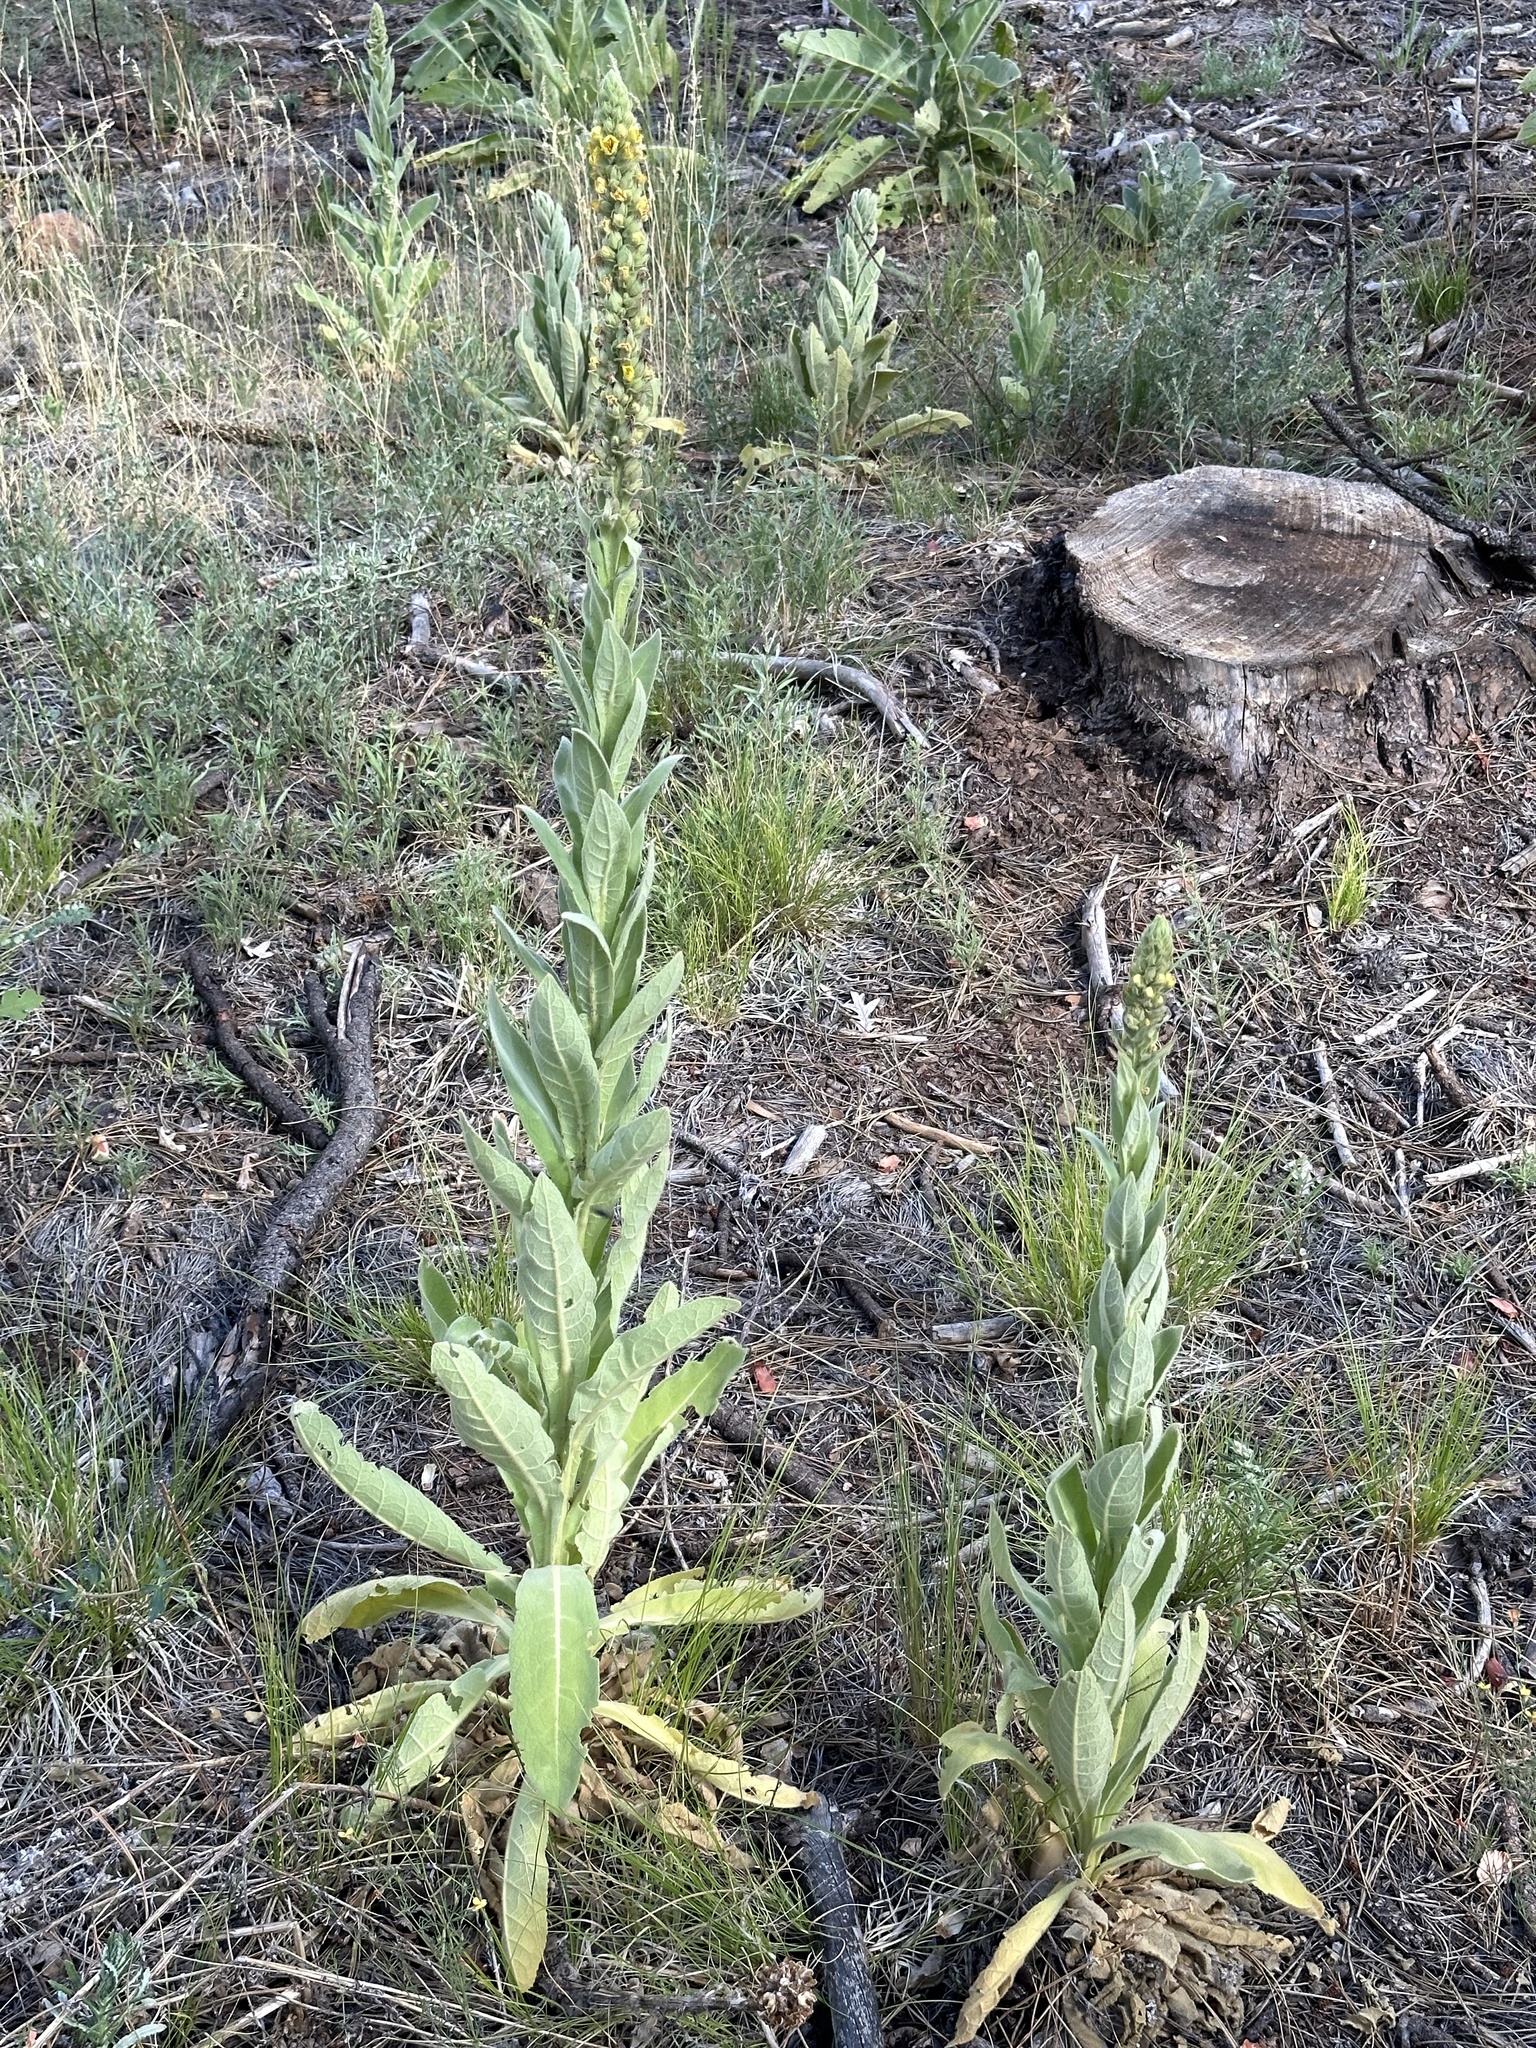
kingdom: Plantae
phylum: Tracheophyta
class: Magnoliopsida
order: Lamiales
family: Scrophulariaceae
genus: Verbascum
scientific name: Verbascum thapsus
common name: Common mullein
